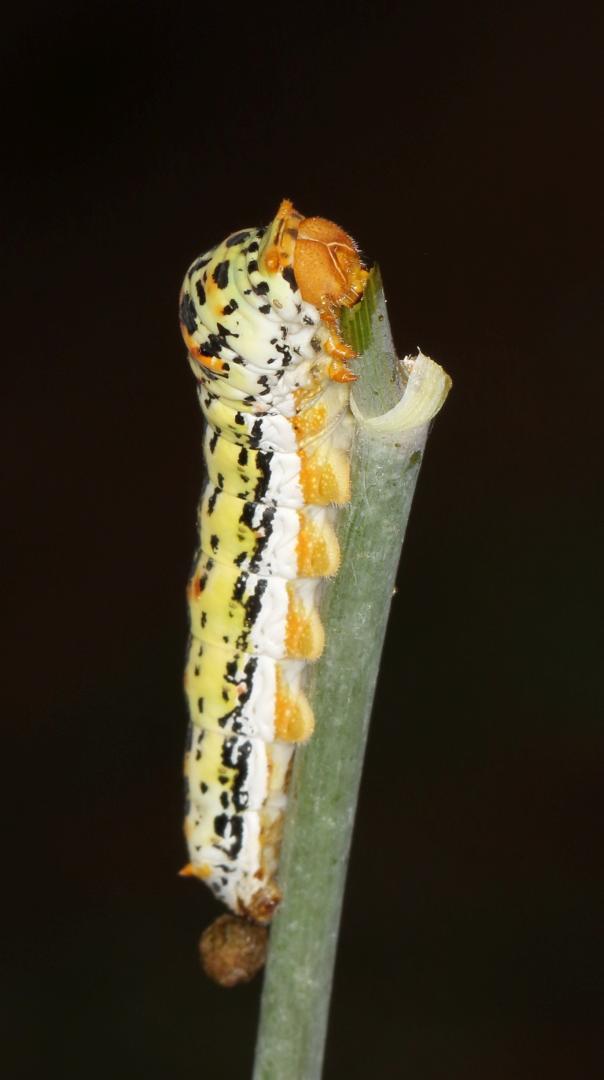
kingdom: Animalia
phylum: Arthropoda
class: Insecta
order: Lepidoptera
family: Papilionidae
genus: Papilio
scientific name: Papilio demodocus
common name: Christmas butterfly
